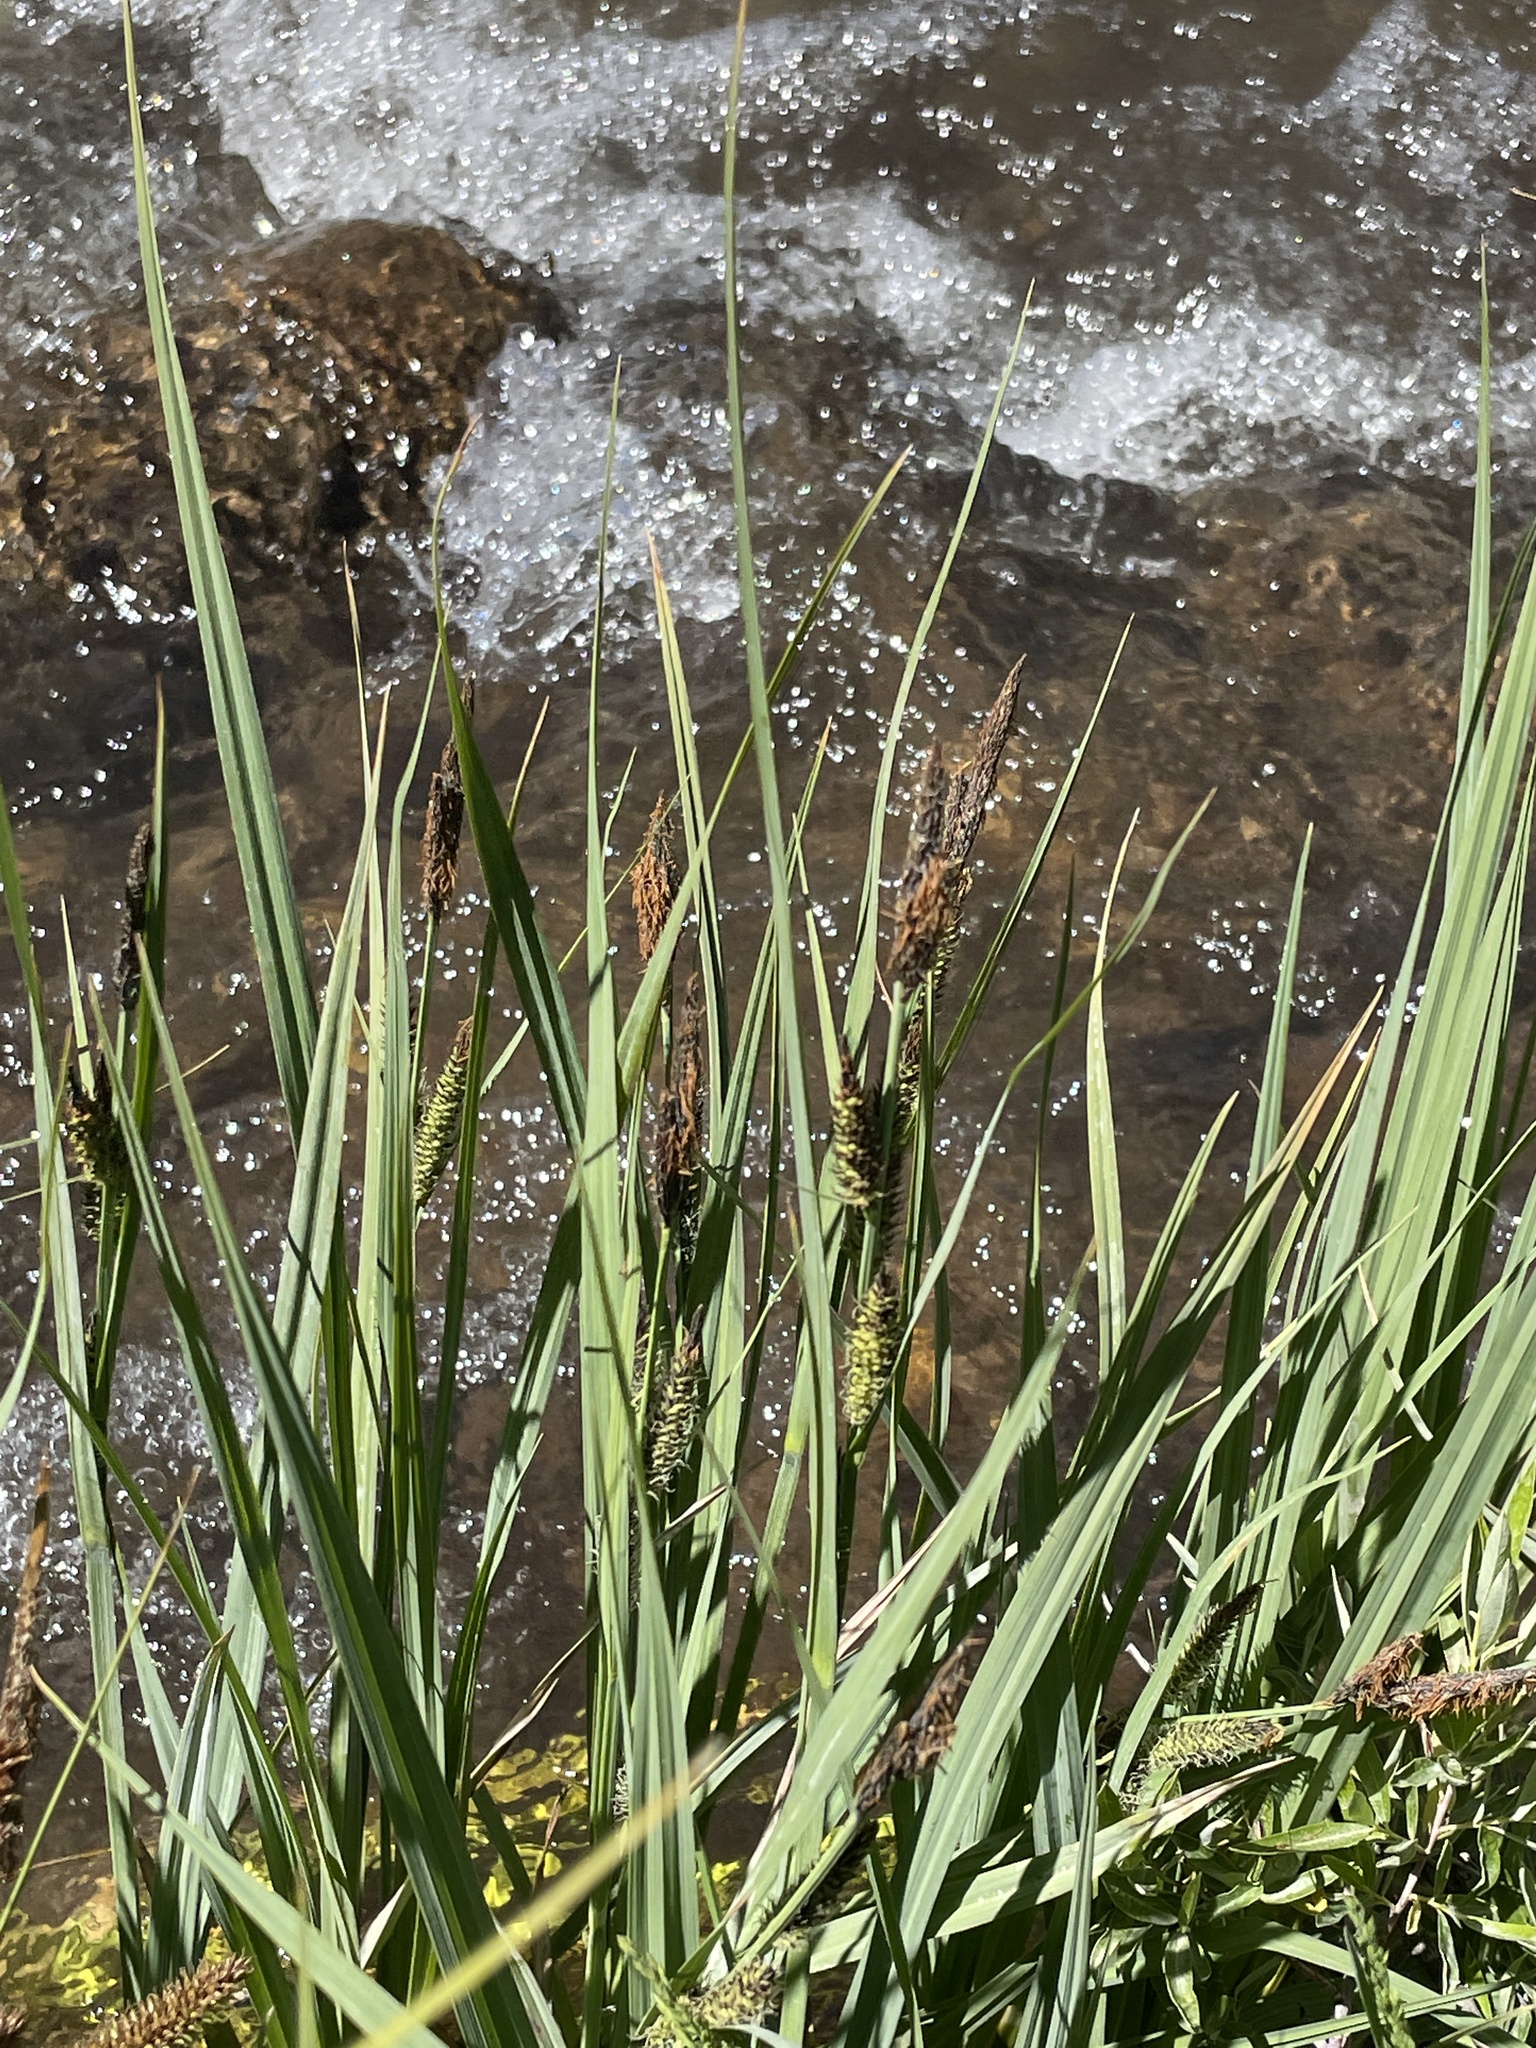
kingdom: Plantae
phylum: Tracheophyta
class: Liliopsida
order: Poales
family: Cyperaceae
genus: Carex
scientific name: Carex nebrascensis
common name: Nebraska sedge
